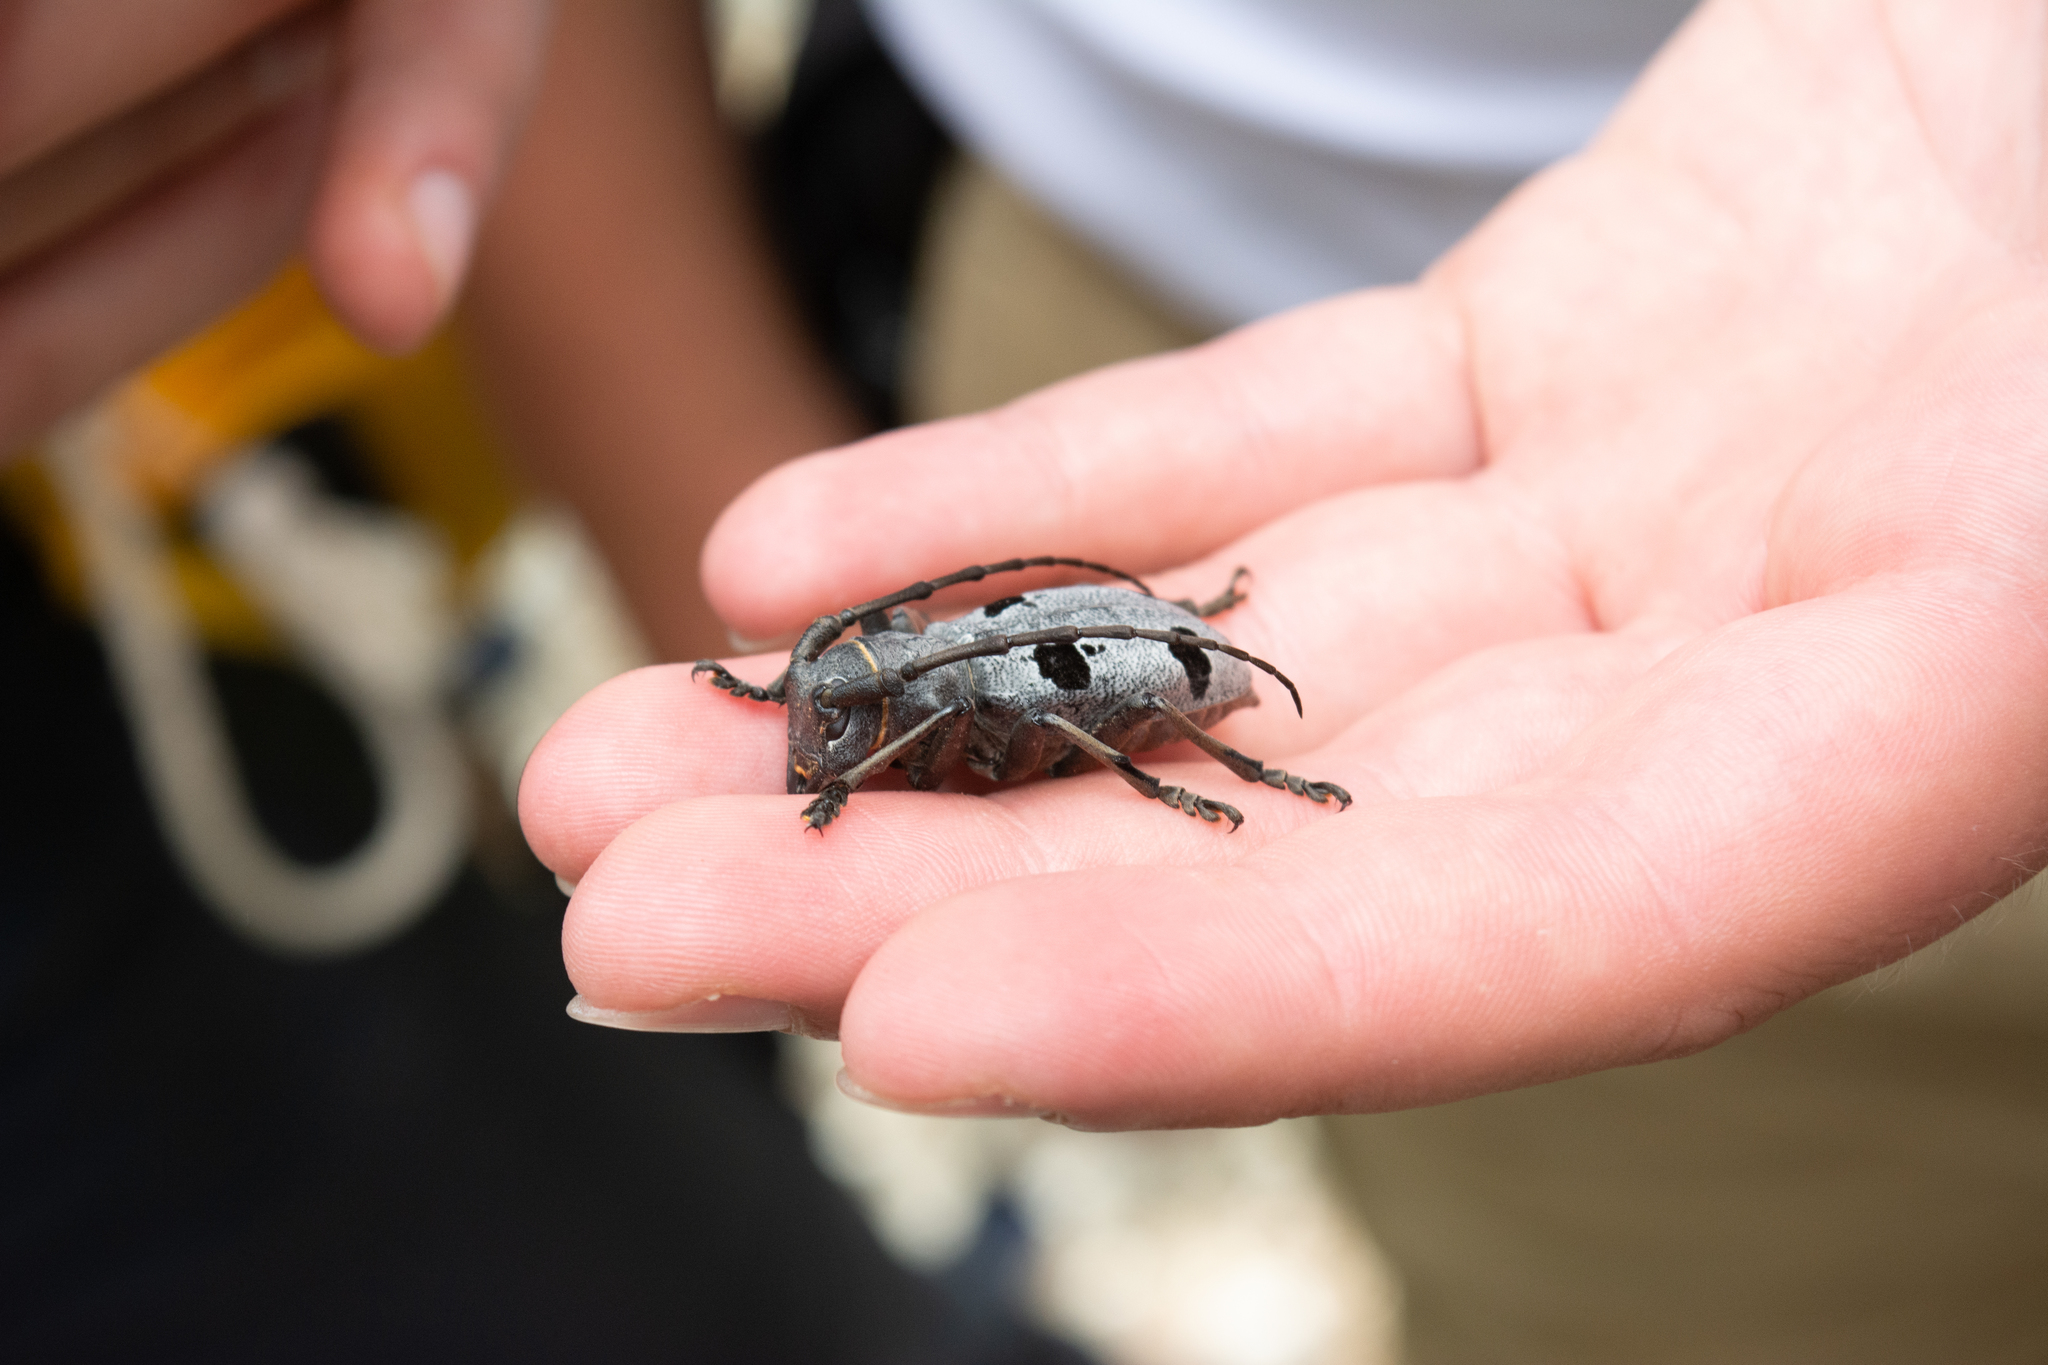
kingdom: Animalia
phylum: Arthropoda
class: Insecta
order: Coleoptera
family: Cerambycidae
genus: Morimus
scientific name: Morimus funereus
